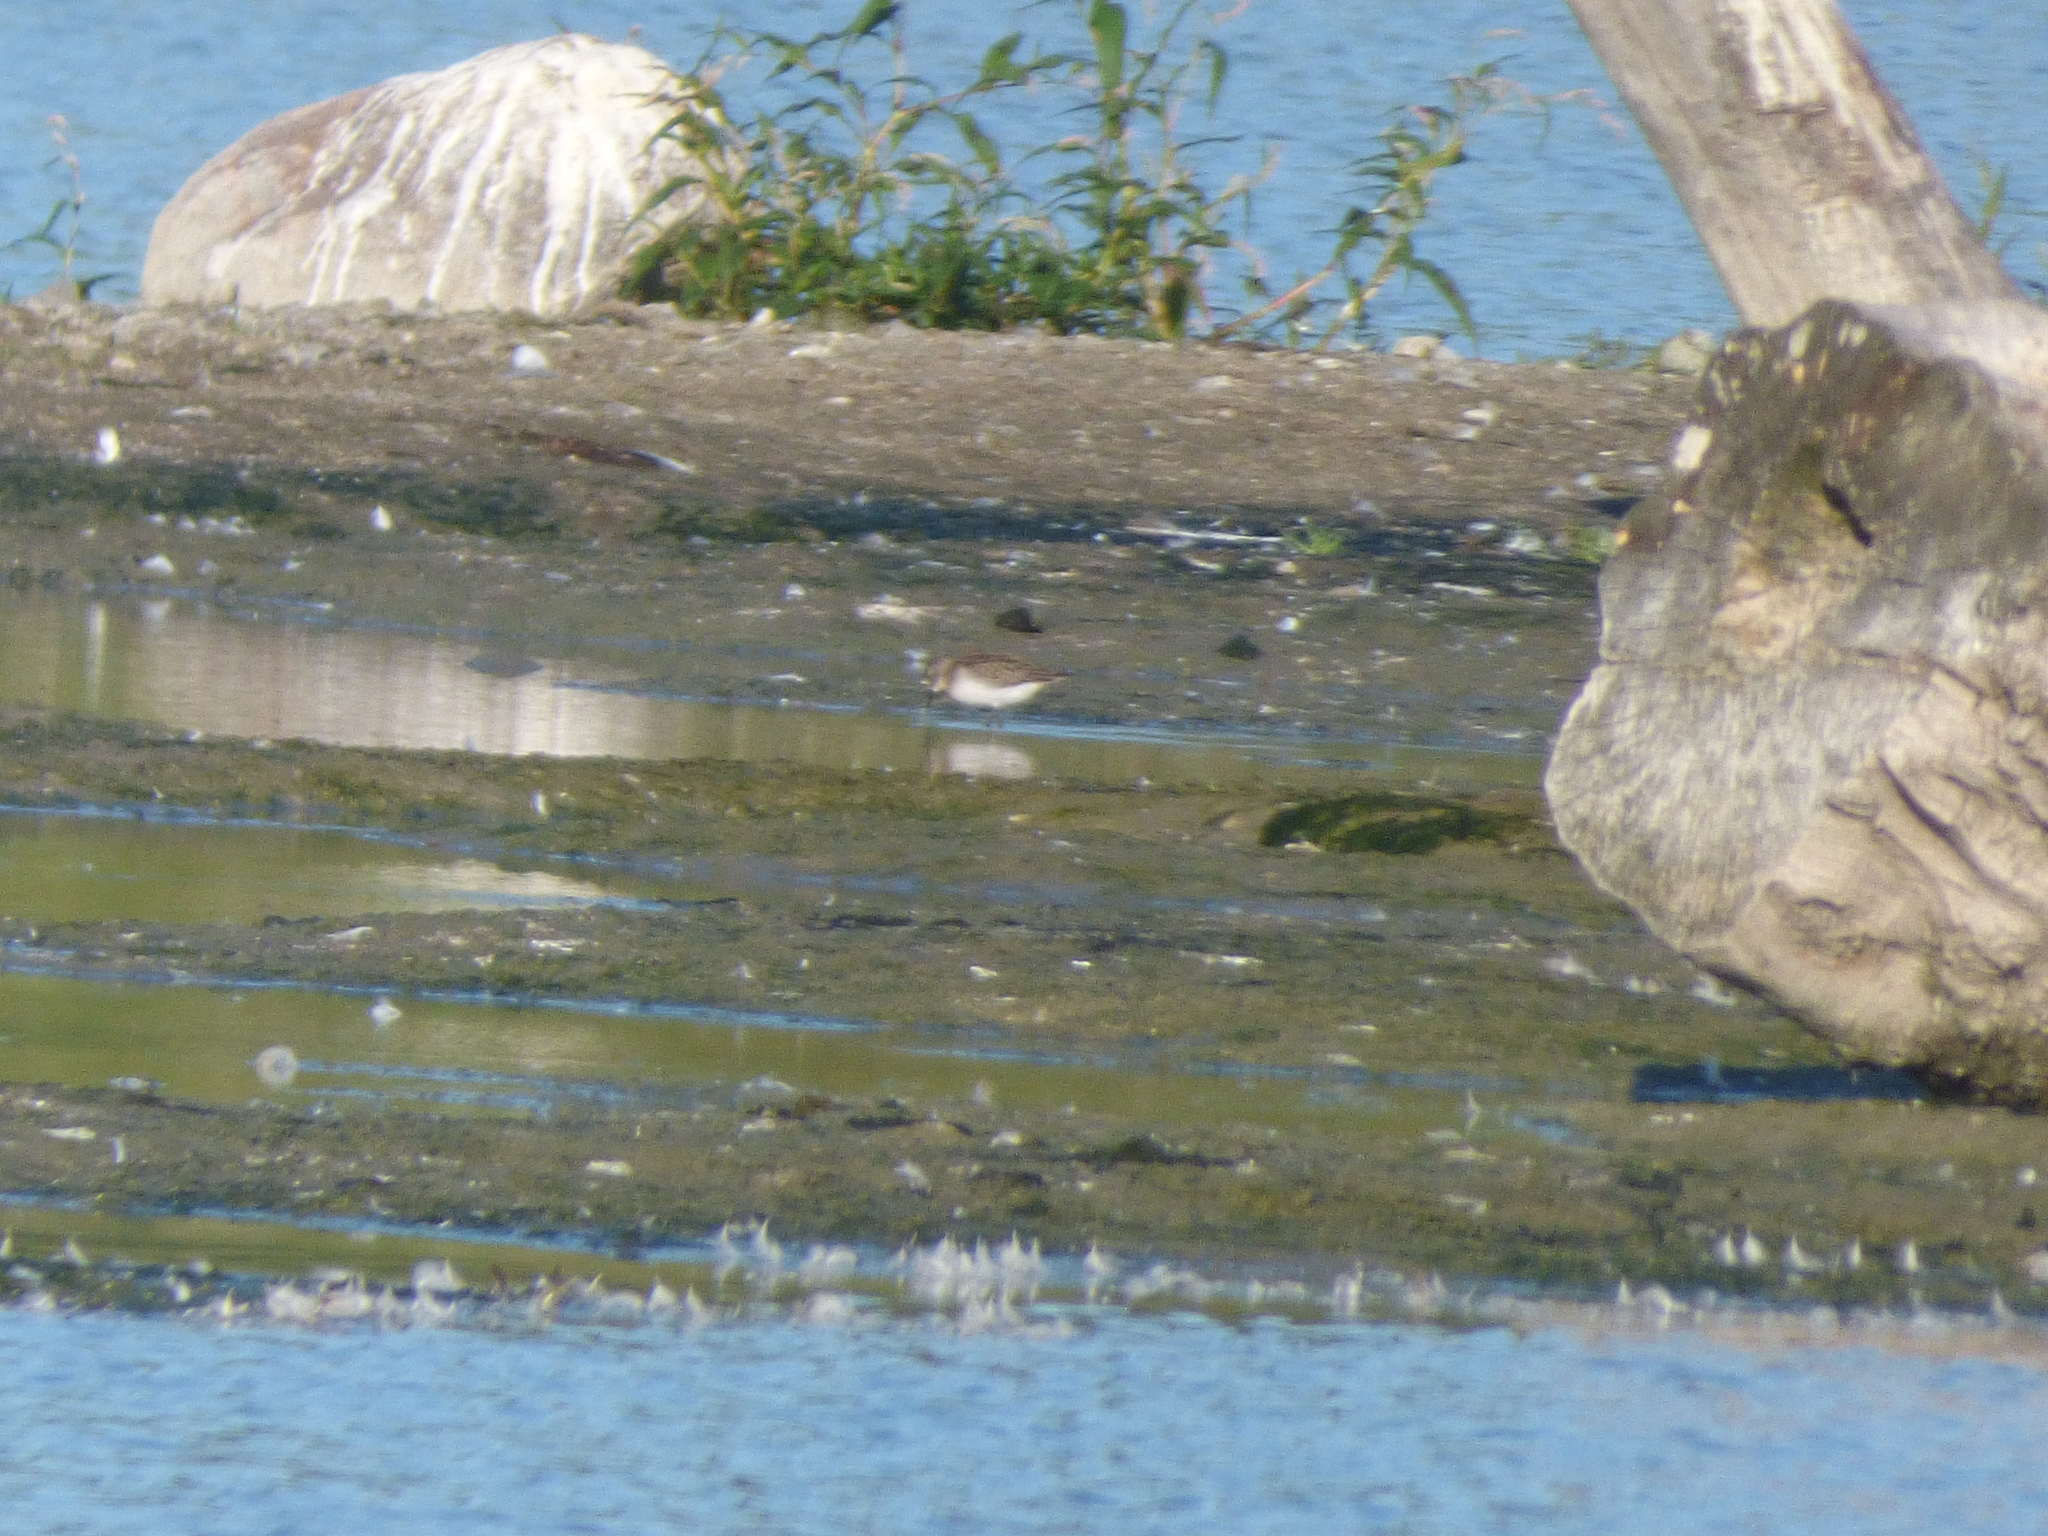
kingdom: Animalia
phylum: Chordata
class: Aves
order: Charadriiformes
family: Scolopacidae
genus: Calidris
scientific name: Calidris pusilla
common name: Semipalmated sandpiper
